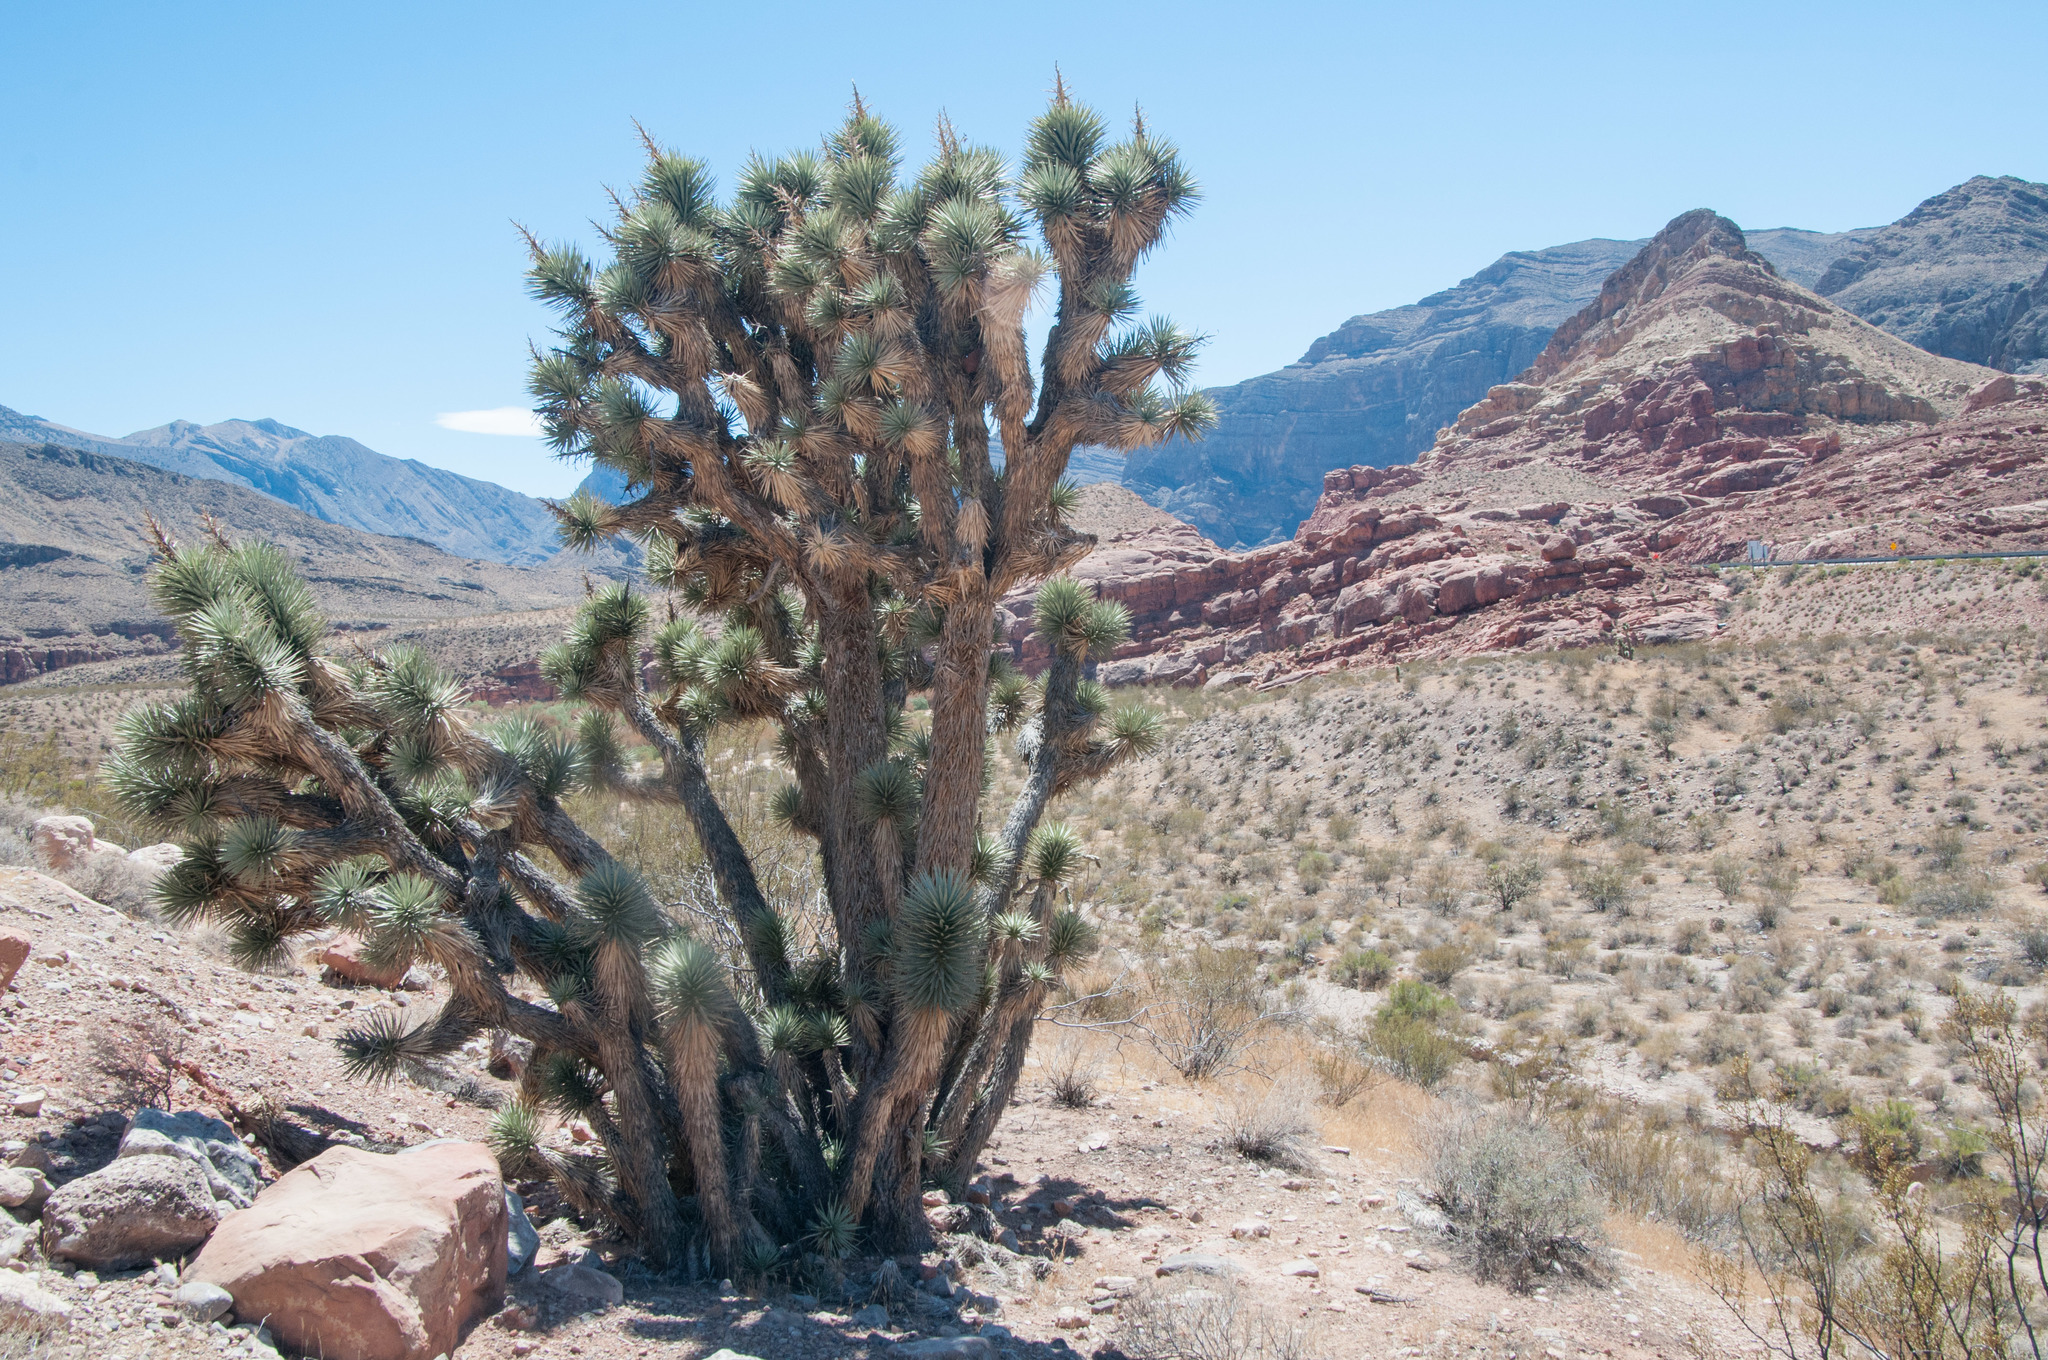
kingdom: Plantae
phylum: Tracheophyta
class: Liliopsida
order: Asparagales
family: Asparagaceae
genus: Yucca
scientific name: Yucca brevifolia
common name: Joshua tree
